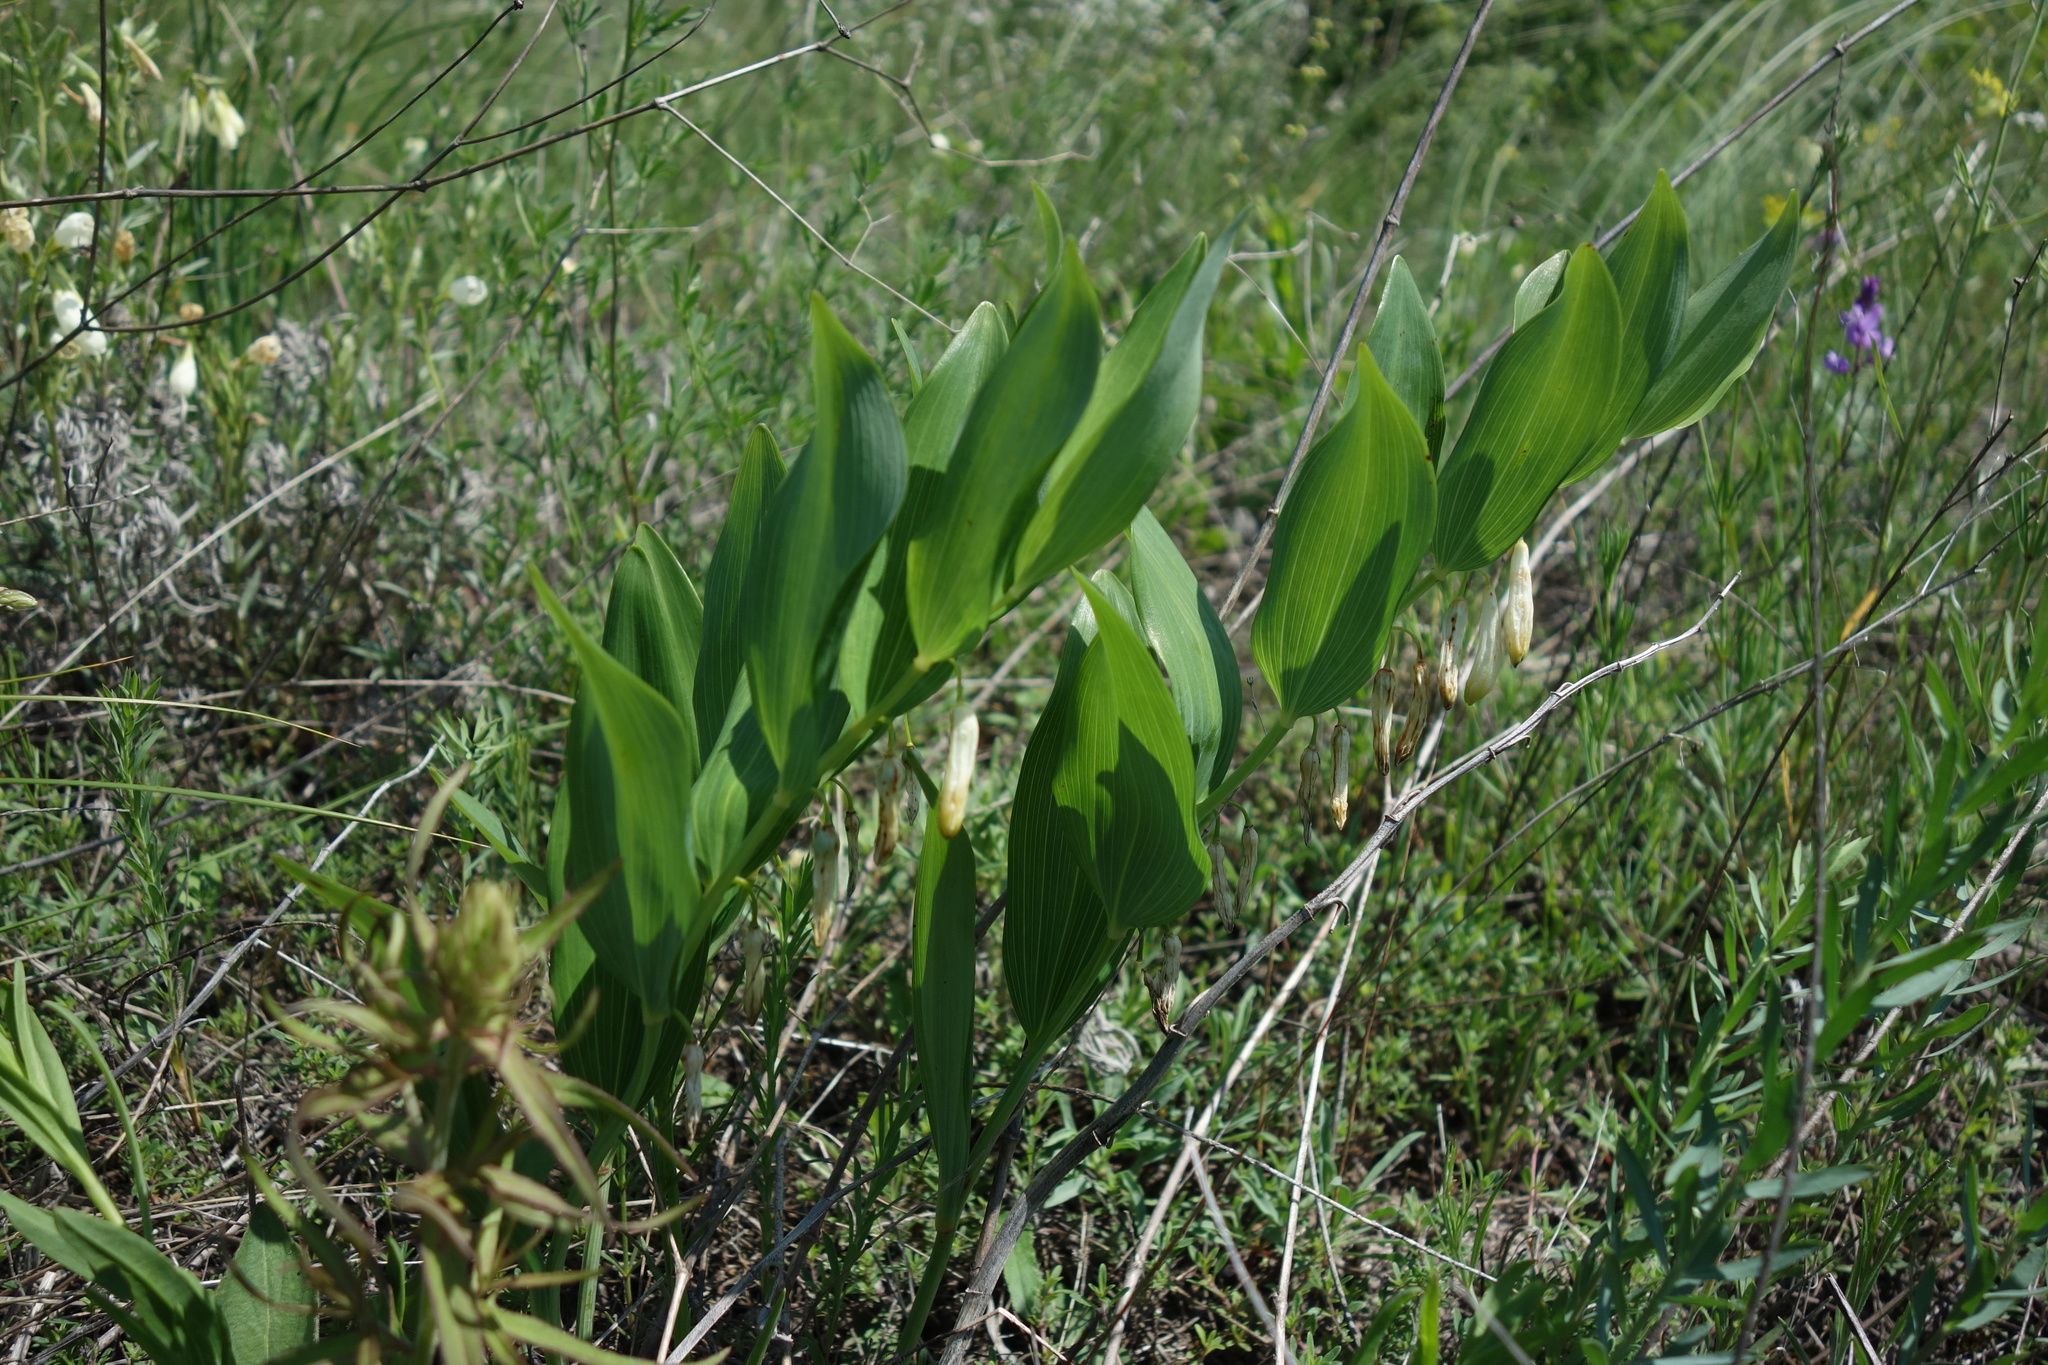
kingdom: Plantae
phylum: Tracheophyta
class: Liliopsida
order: Asparagales
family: Asparagaceae
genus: Polygonatum
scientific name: Polygonatum odoratum
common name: Angular solomon's-seal
